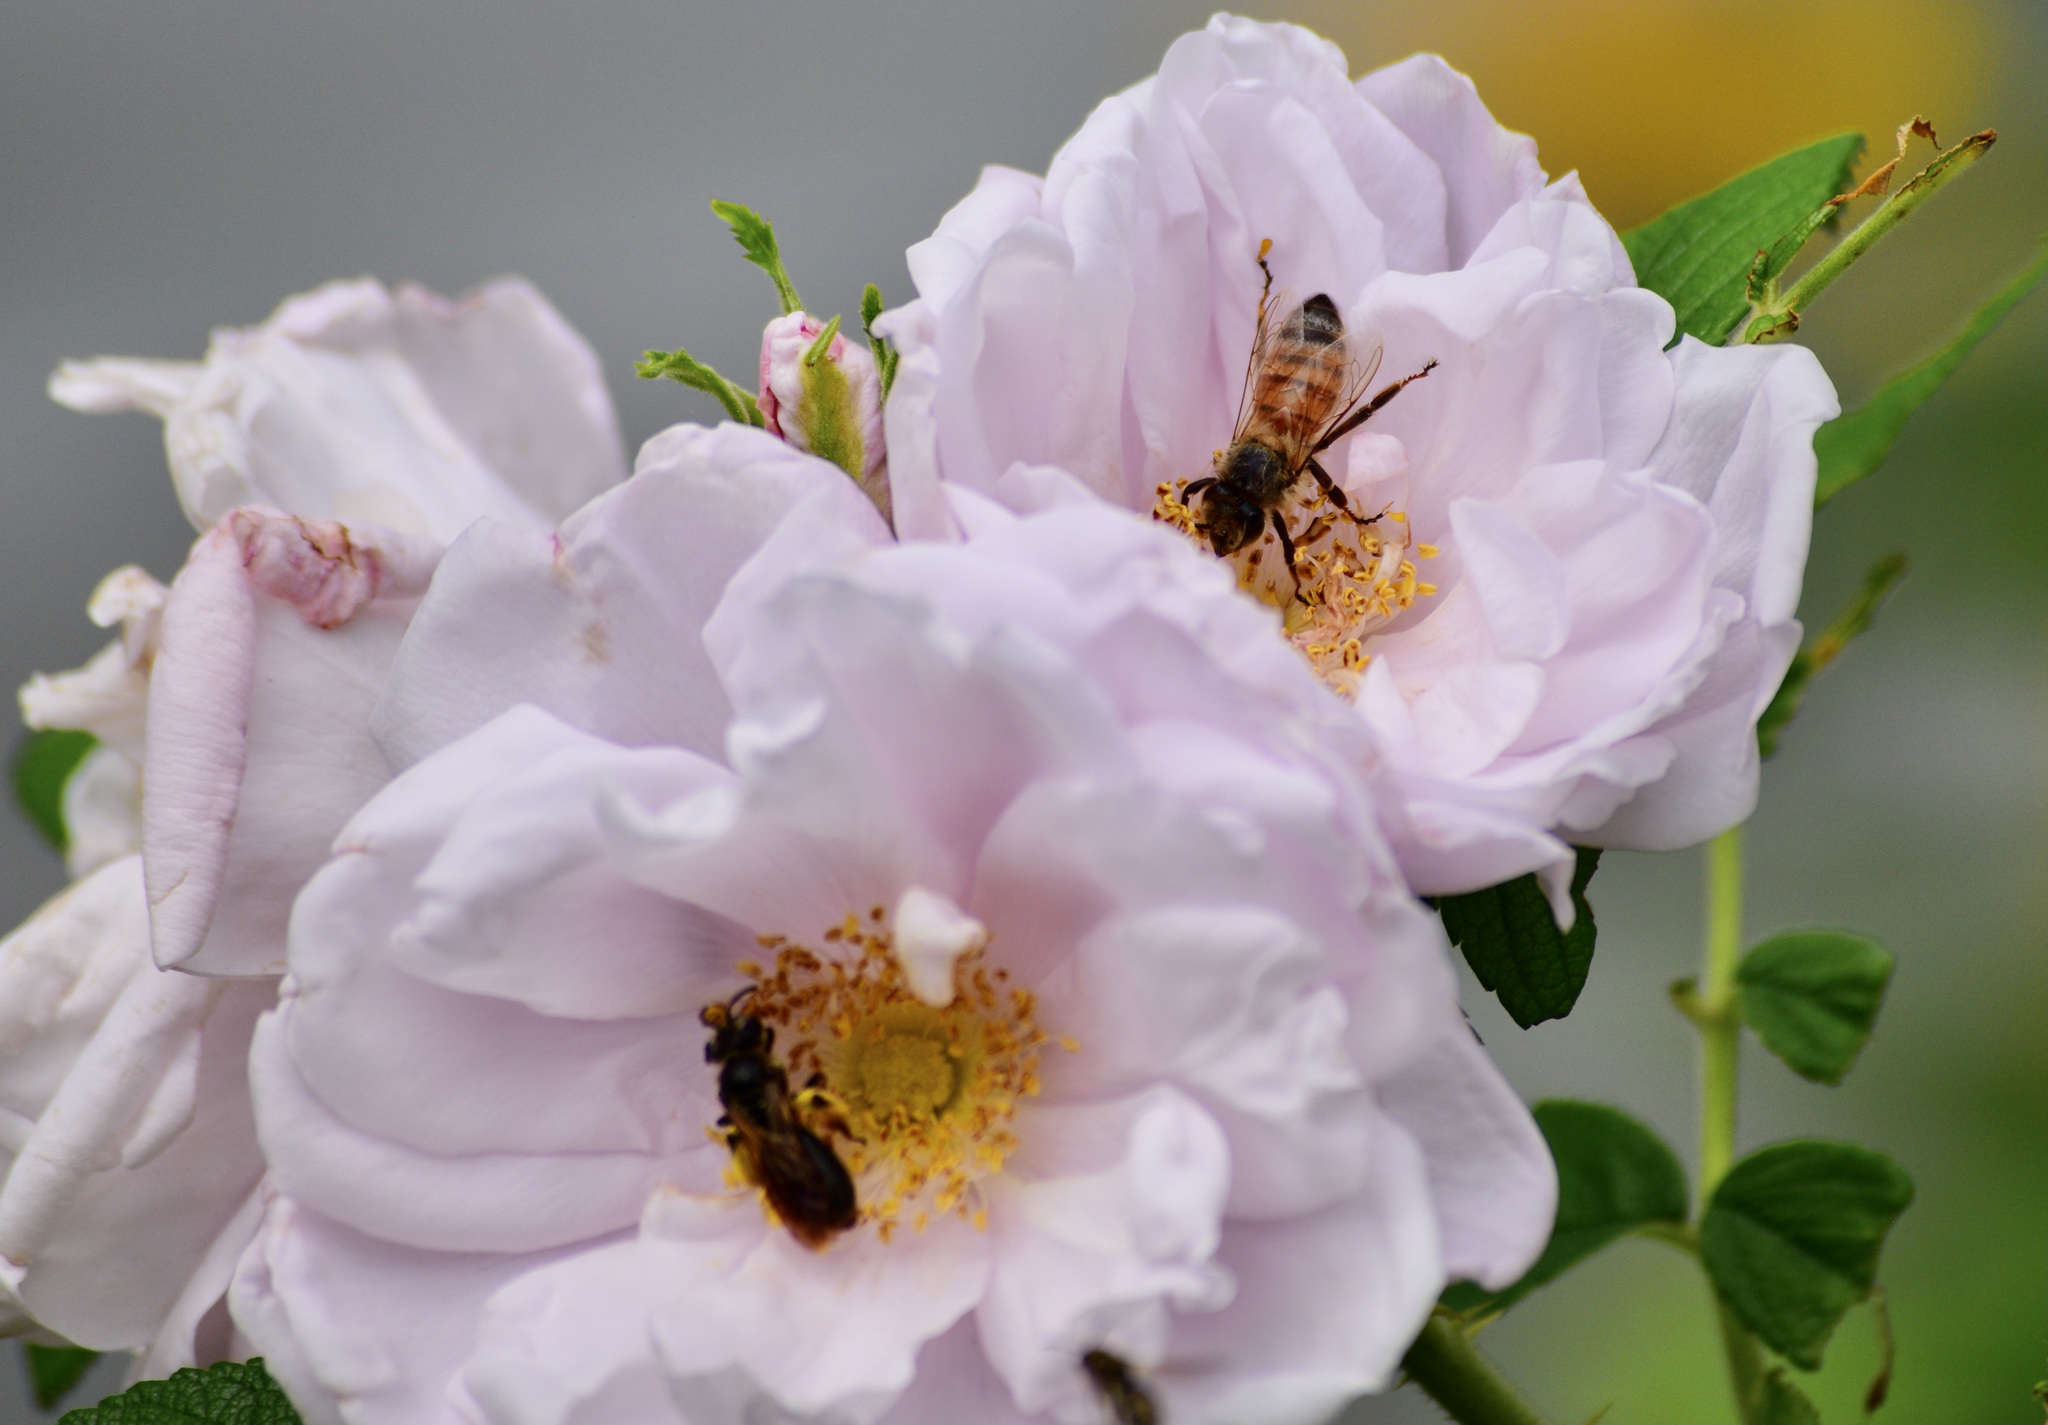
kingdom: Animalia
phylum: Arthropoda
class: Insecta
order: Hymenoptera
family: Apidae
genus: Apis
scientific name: Apis mellifera
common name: Honey bee
